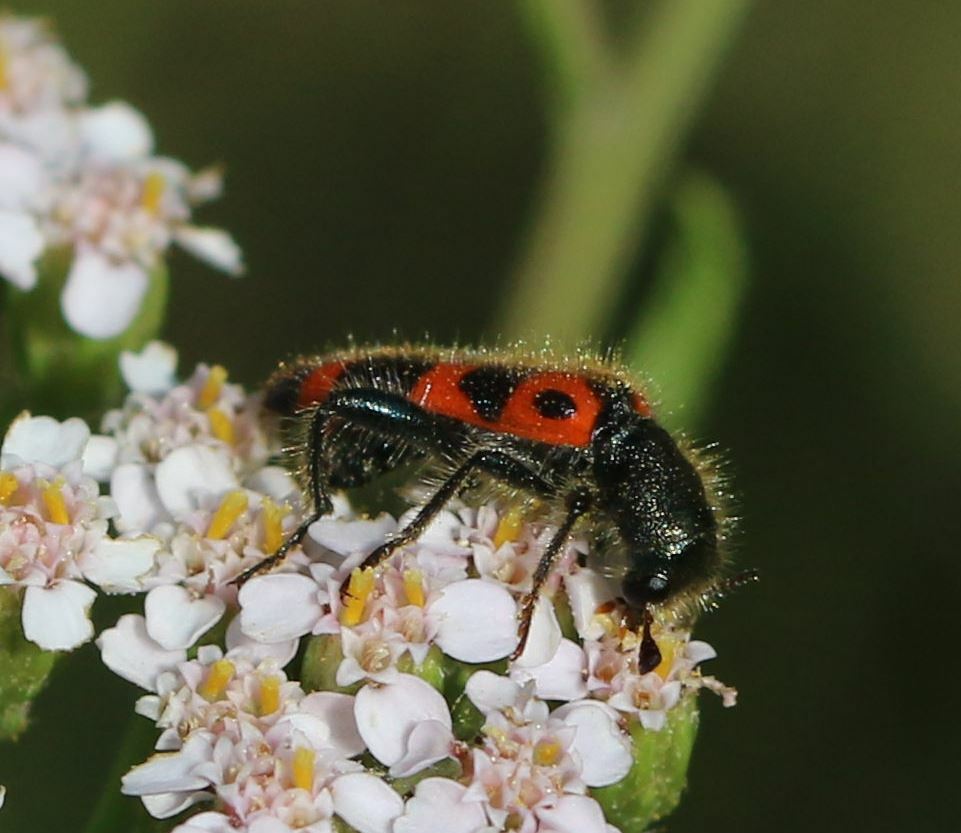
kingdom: Animalia
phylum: Arthropoda
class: Insecta
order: Coleoptera
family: Cleridae
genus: Trichodes
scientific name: Trichodes leucopsideus
